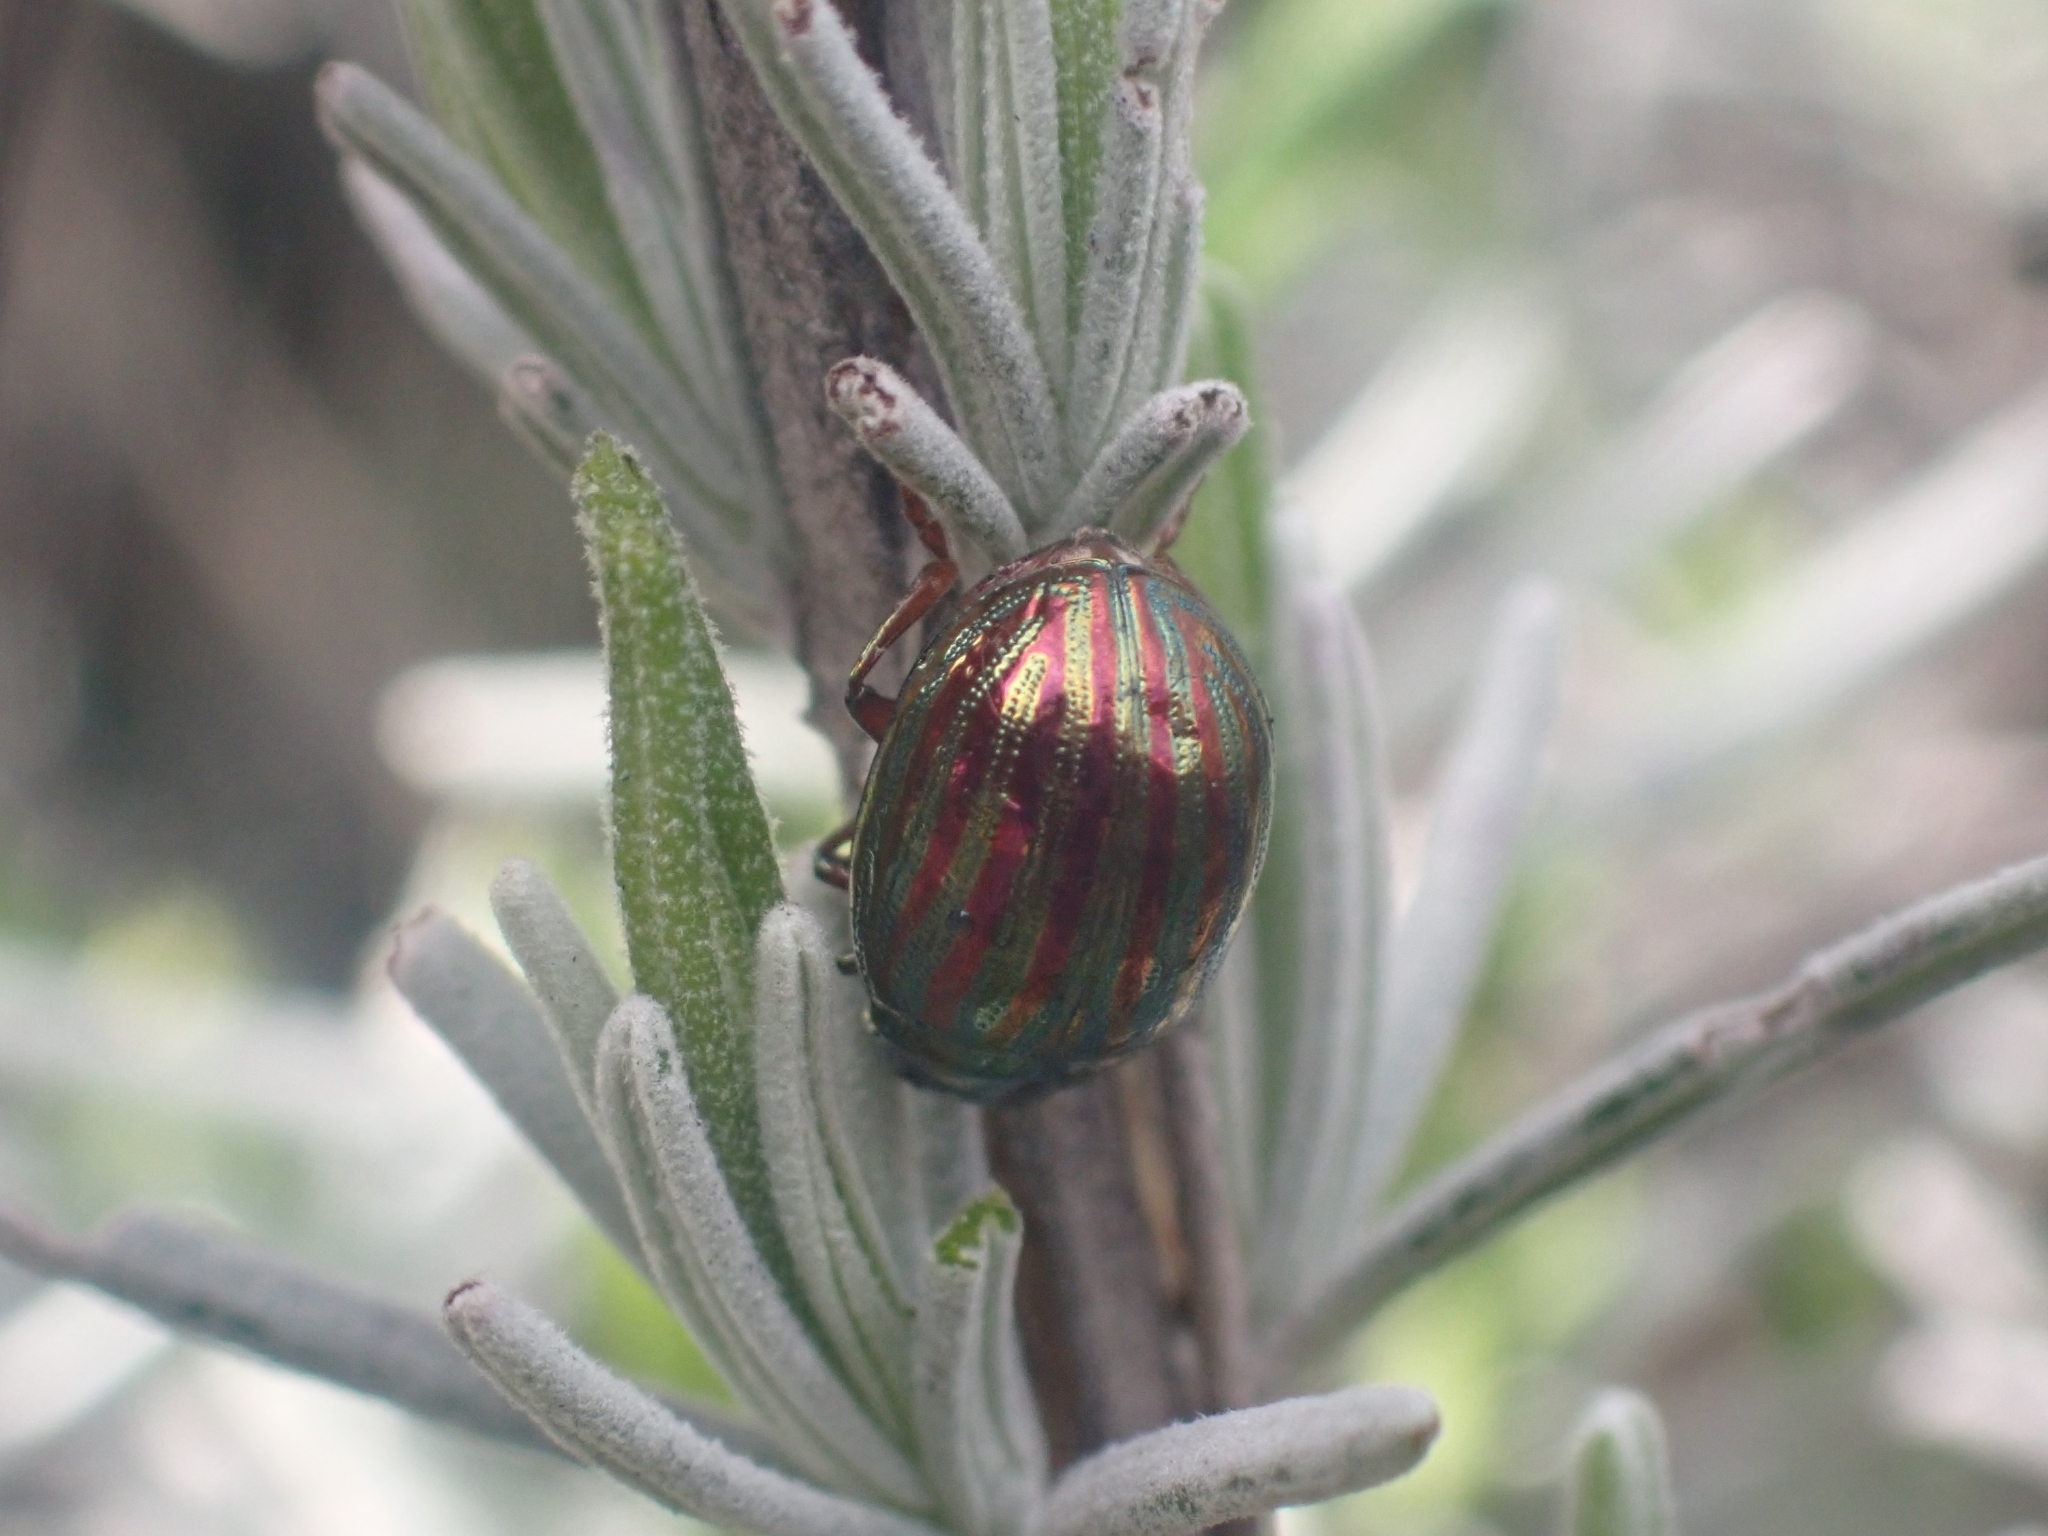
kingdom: Animalia
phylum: Arthropoda
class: Insecta
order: Coleoptera
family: Chrysomelidae
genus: Chrysolina
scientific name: Chrysolina americana
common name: Rosemary beetle
